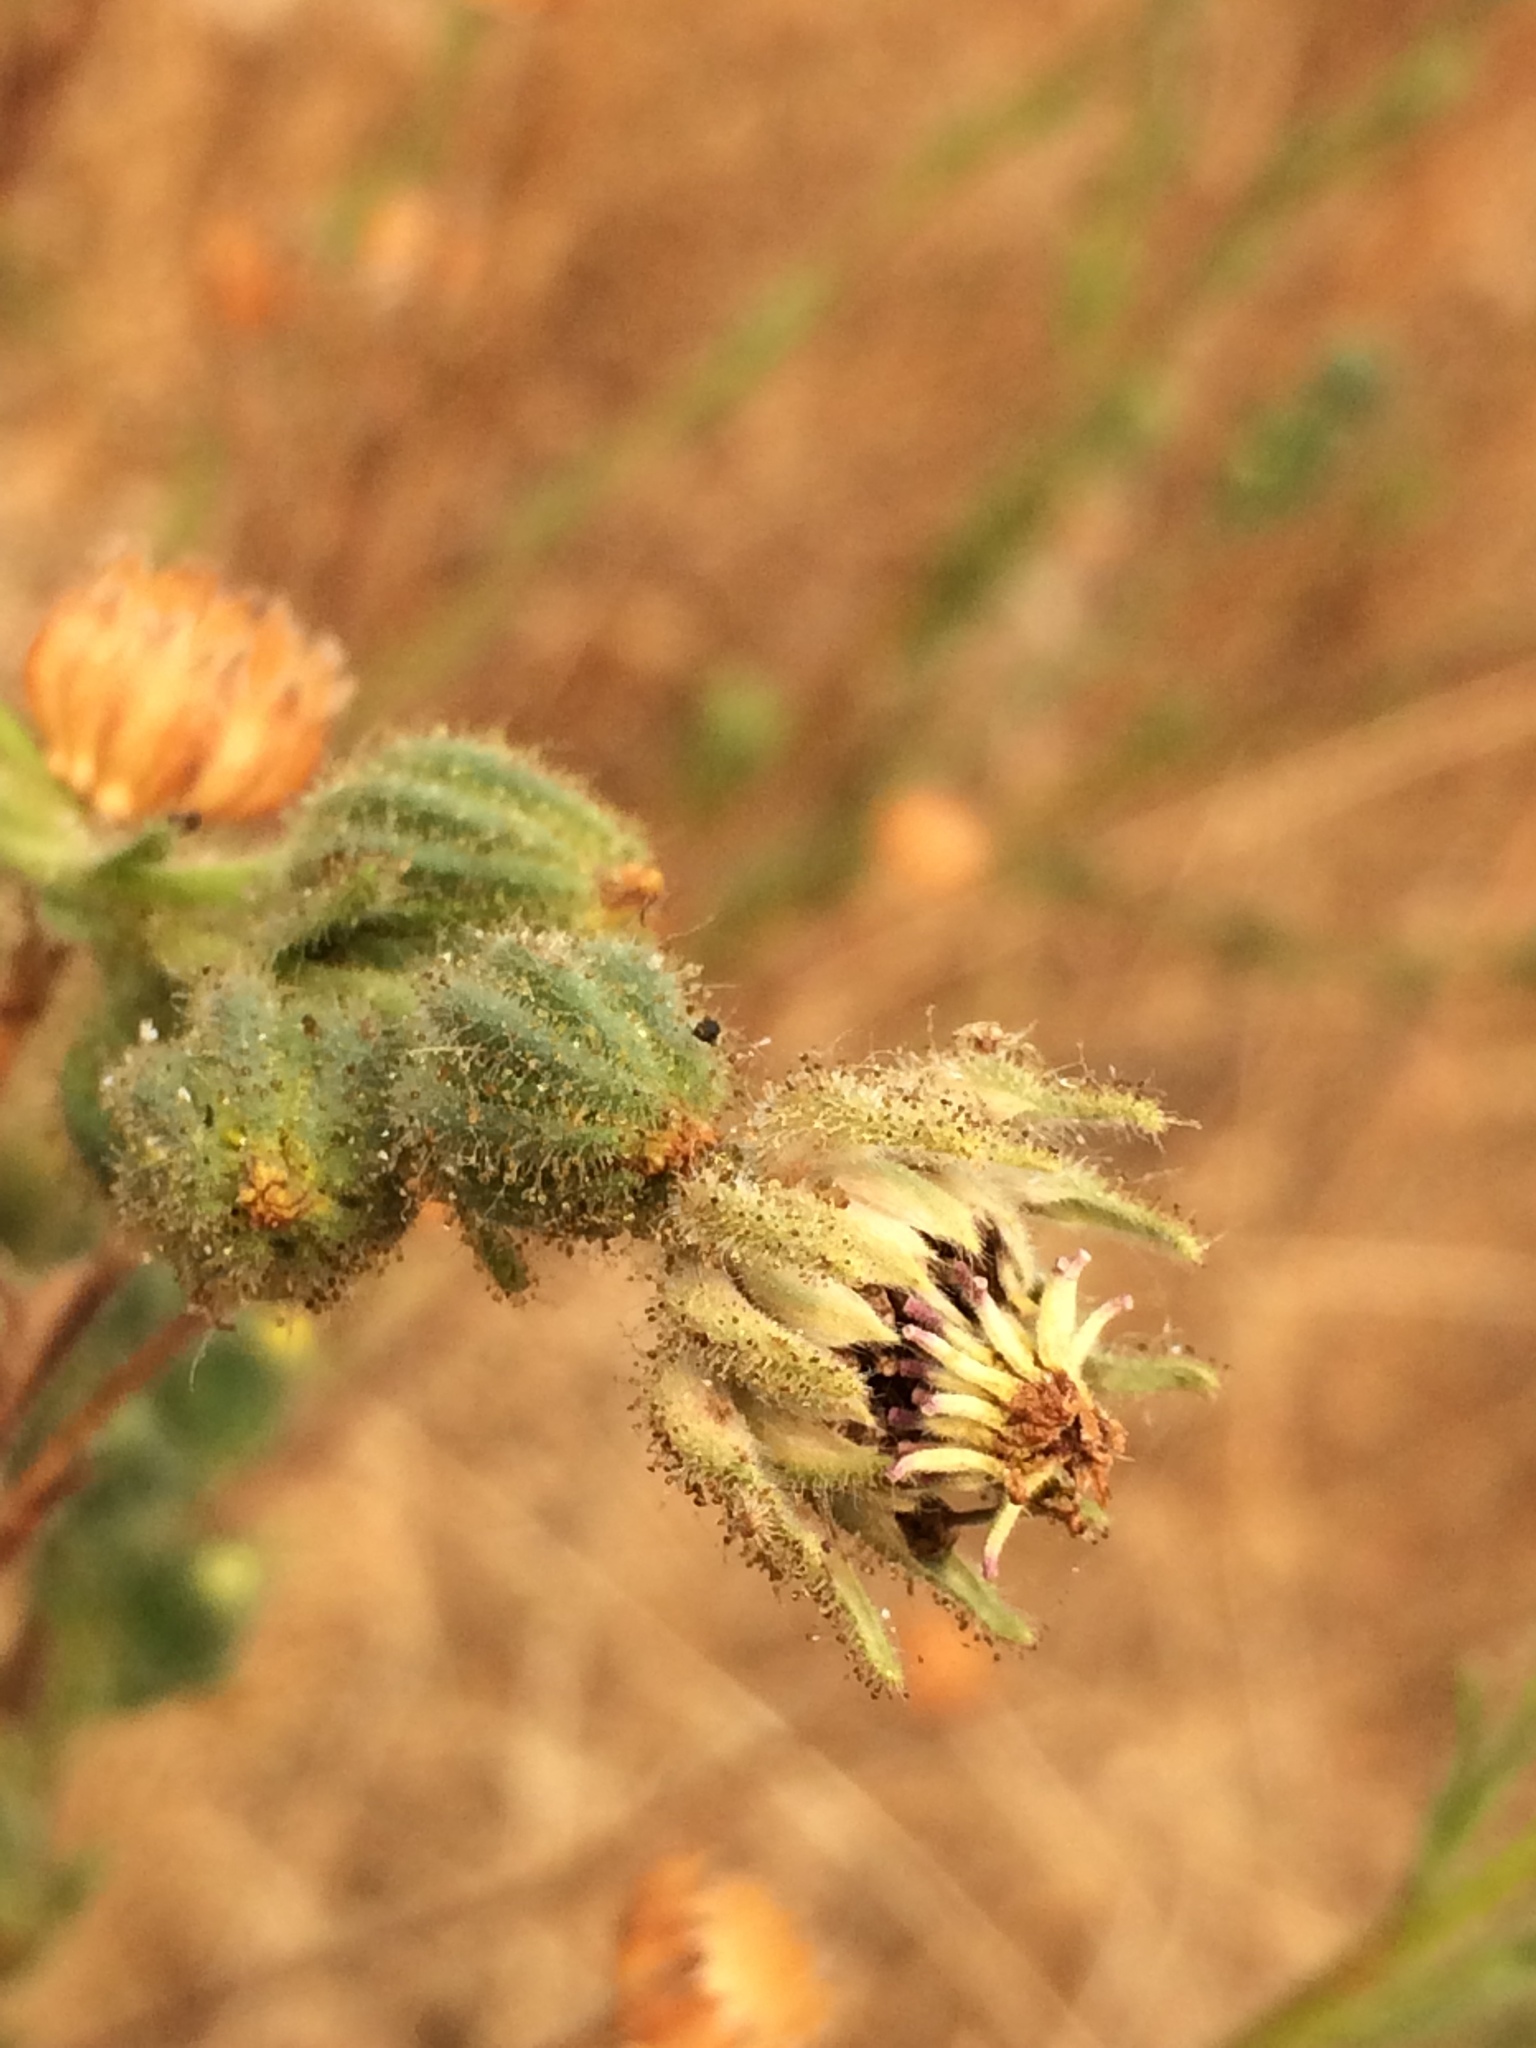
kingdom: Plantae
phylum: Tracheophyta
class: Magnoliopsida
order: Asterales
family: Asteraceae
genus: Madia
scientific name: Madia sativa
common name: Coast tarweed
